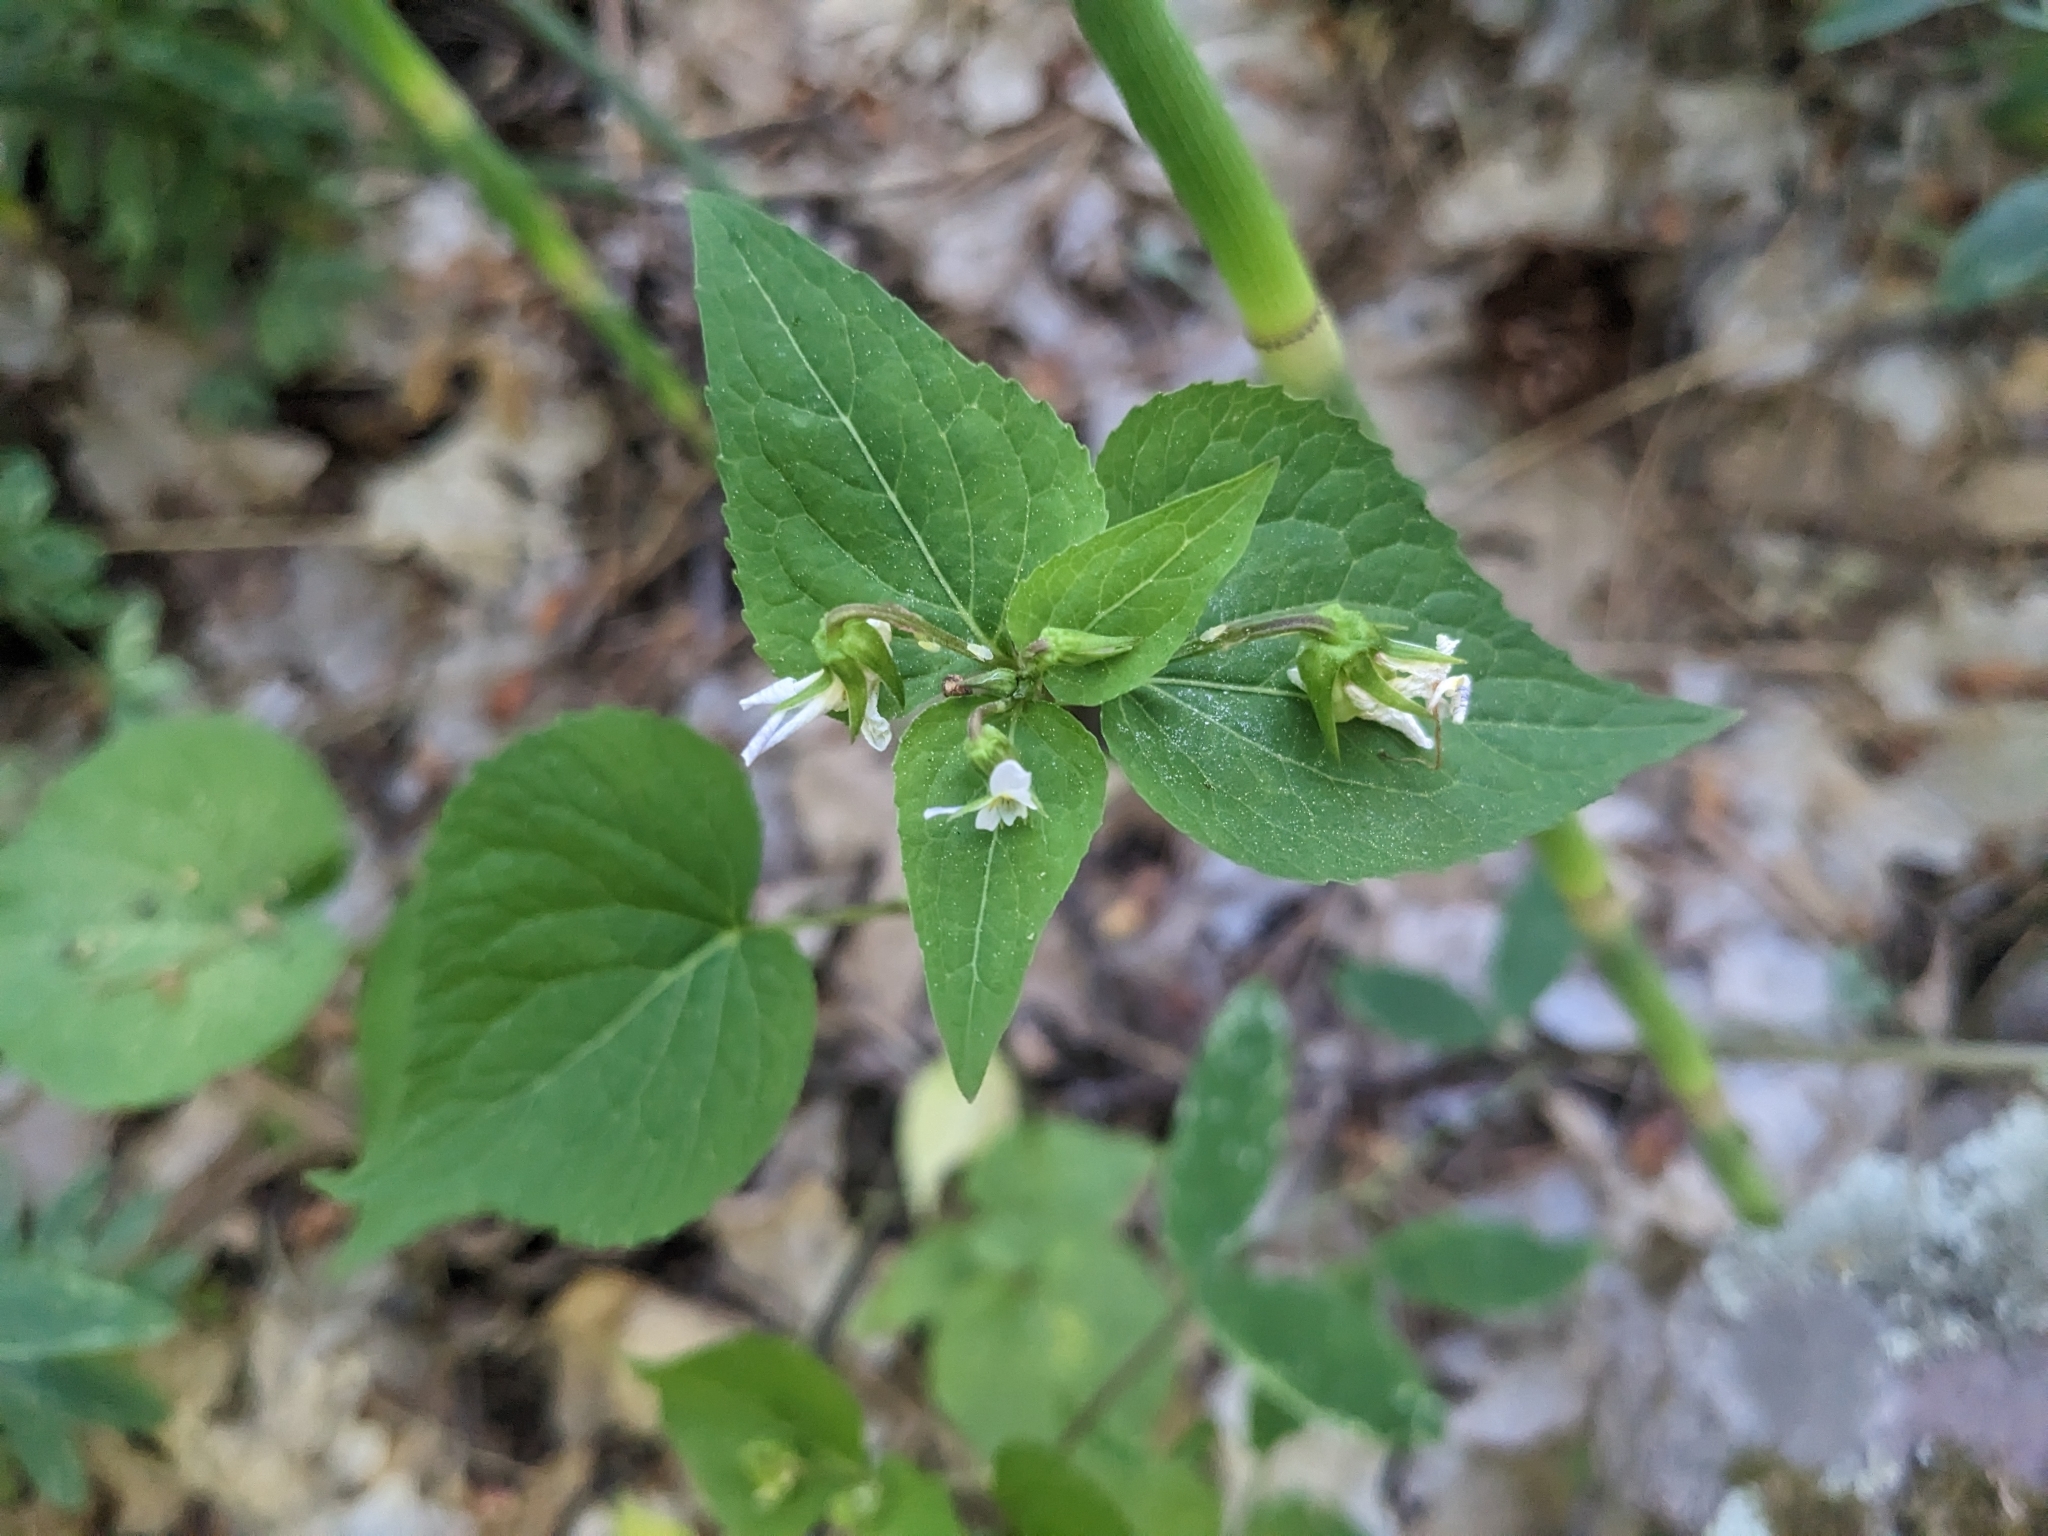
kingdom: Plantae
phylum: Tracheophyta
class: Magnoliopsida
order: Malpighiales
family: Violaceae
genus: Viola
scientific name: Viola canadensis
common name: Canada violet
